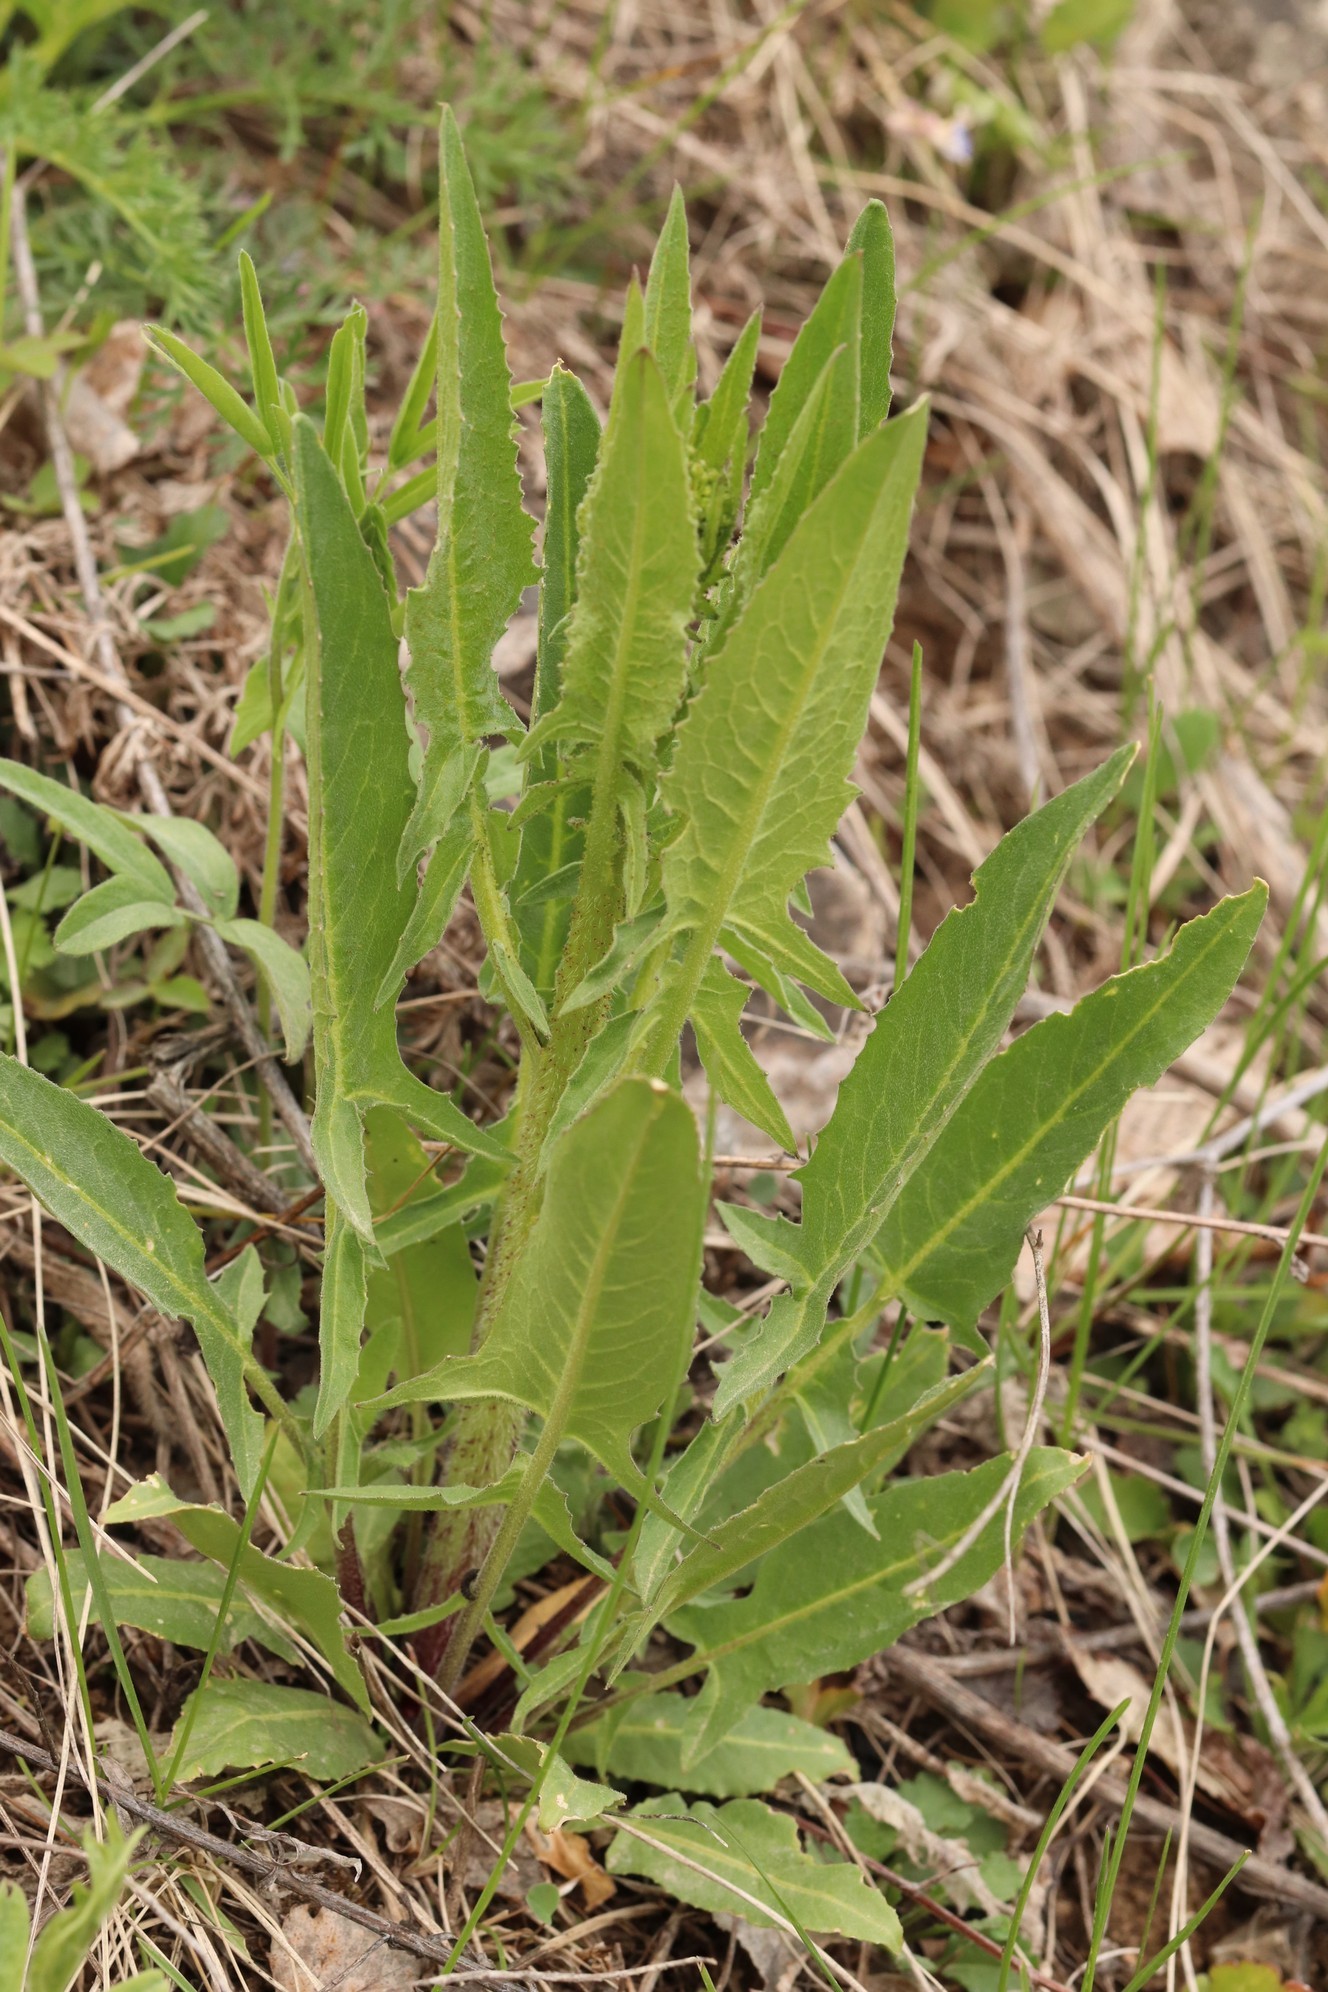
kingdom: Plantae
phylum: Tracheophyta
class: Magnoliopsida
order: Brassicales
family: Brassicaceae
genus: Bunias
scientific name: Bunias orientalis
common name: Warty-cabbage
